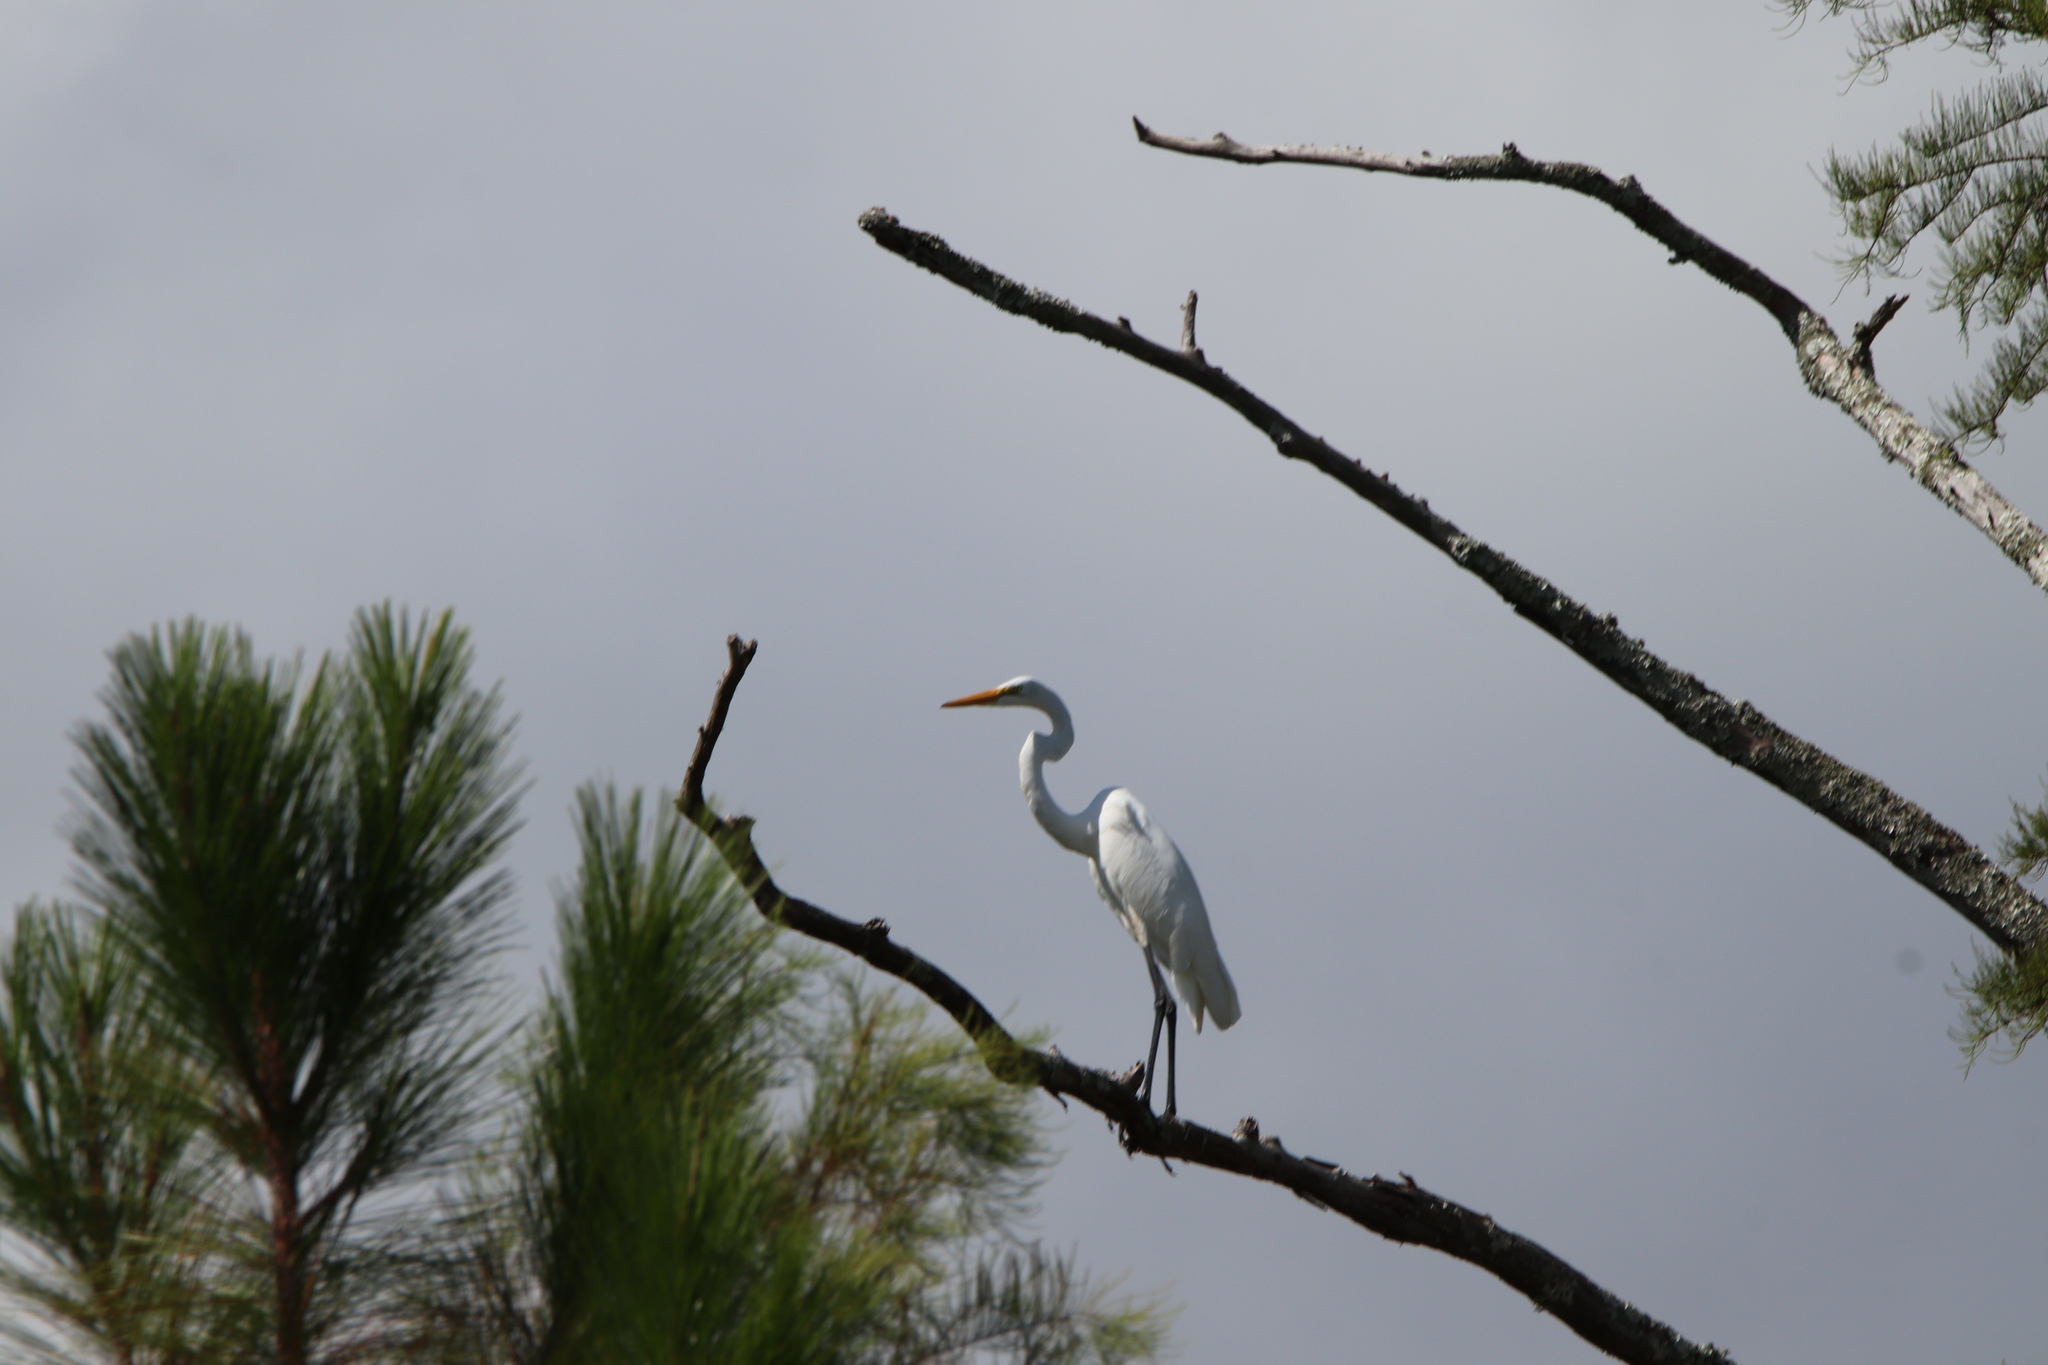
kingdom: Animalia
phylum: Chordata
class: Aves
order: Pelecaniformes
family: Ardeidae
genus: Ardea
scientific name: Ardea alba
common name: Great egret
